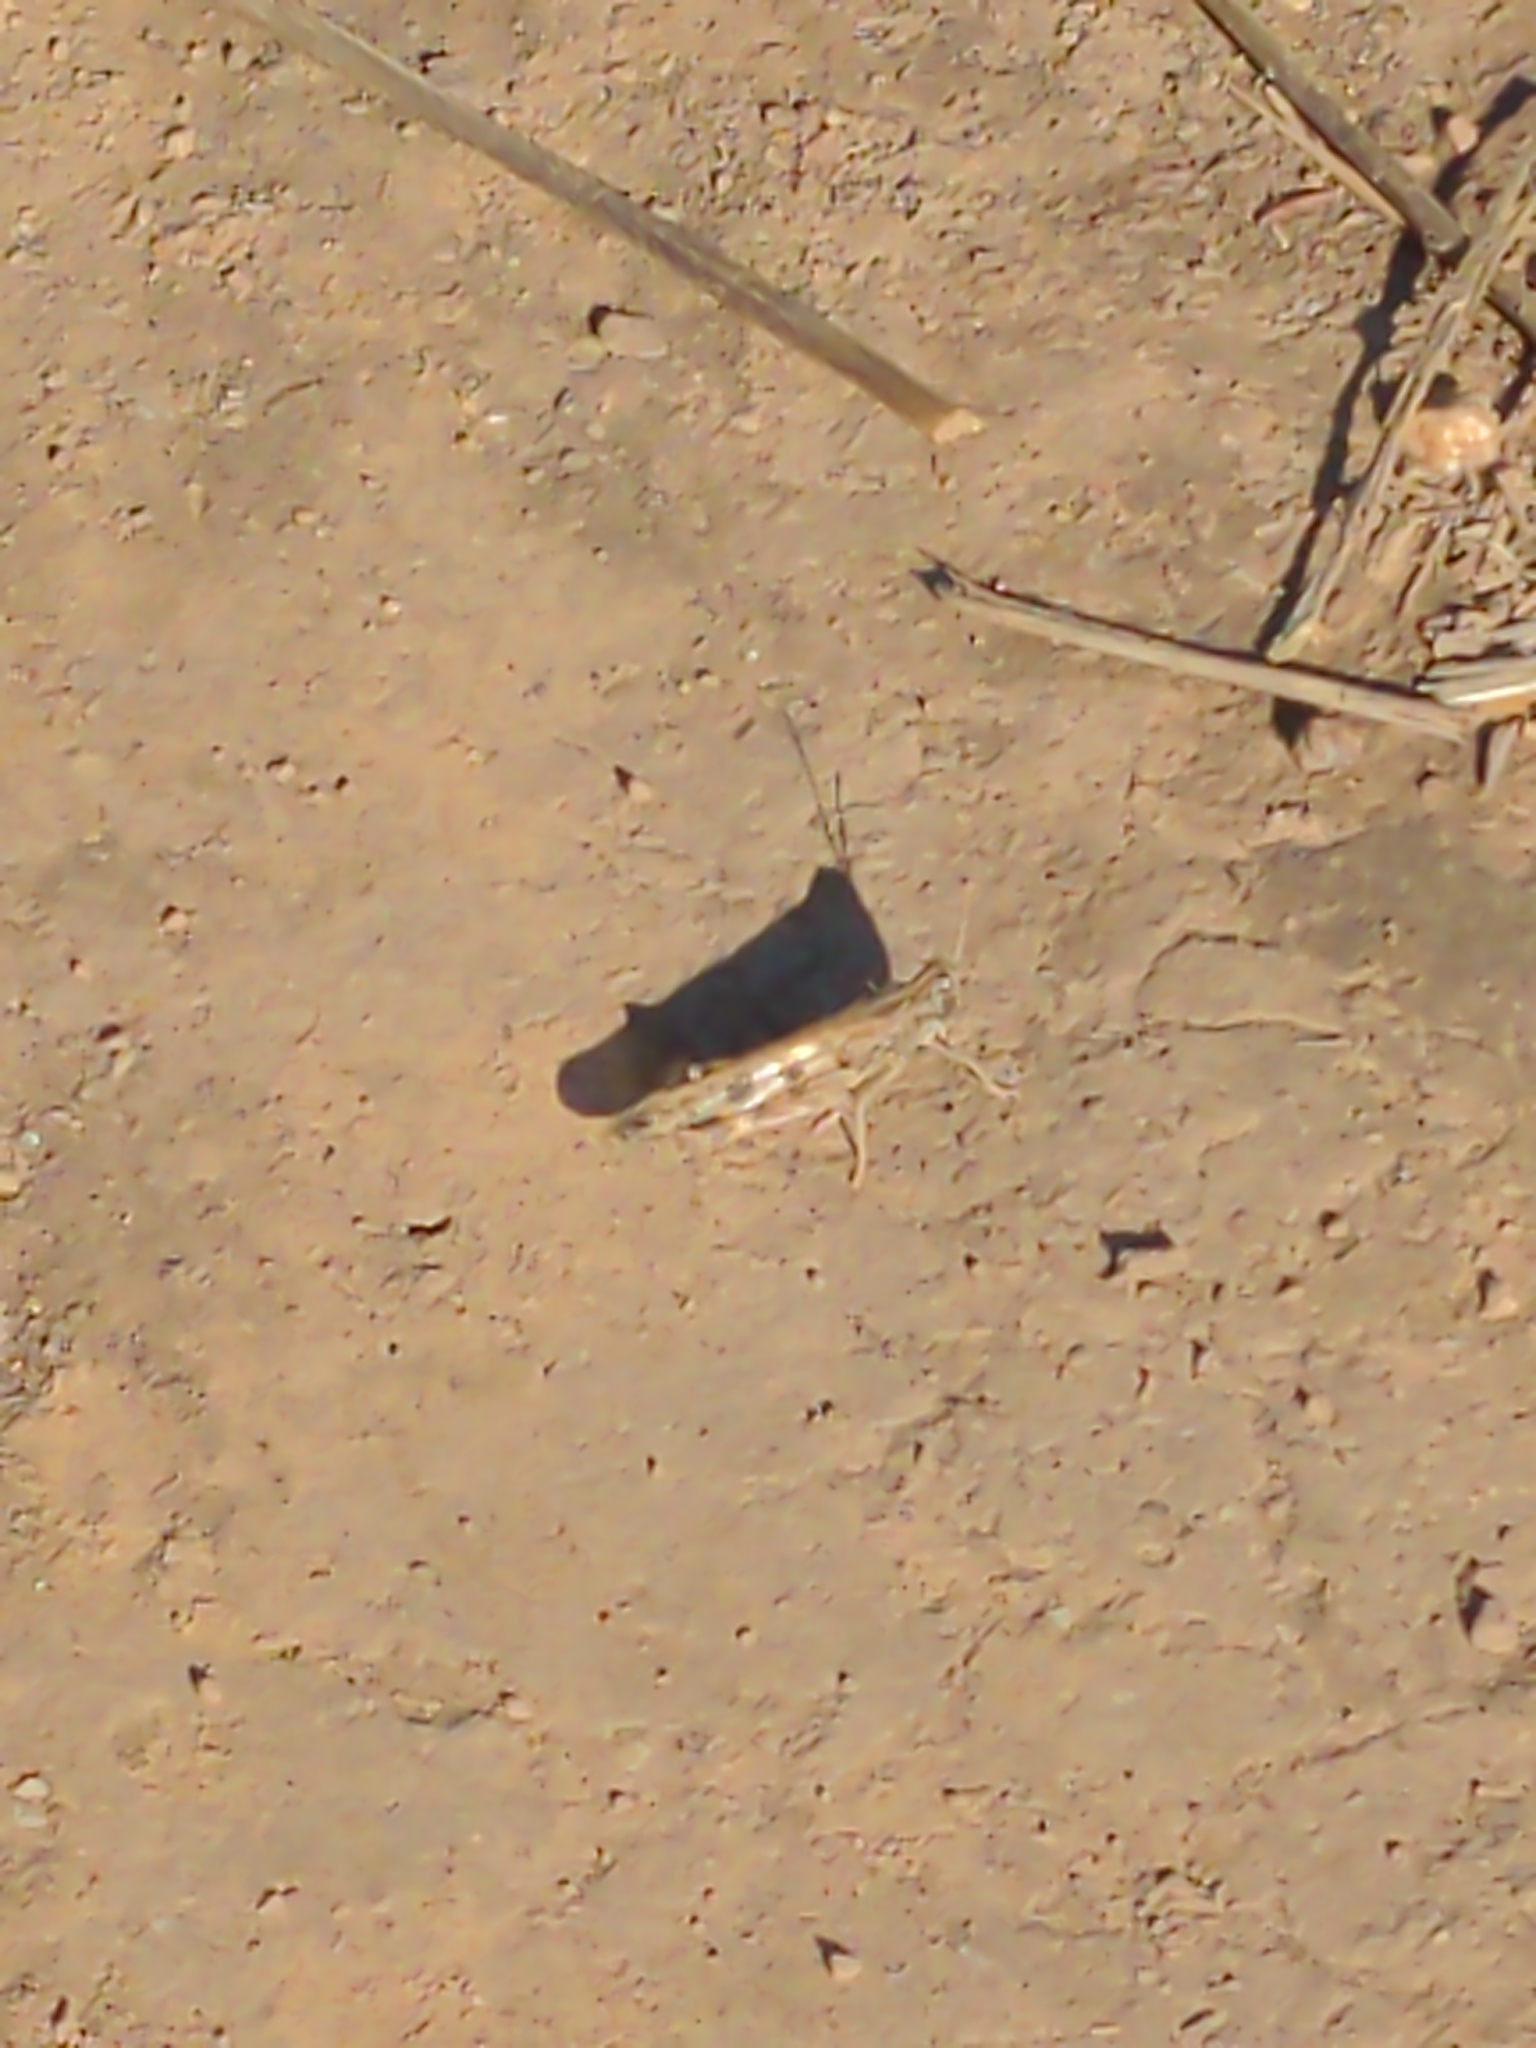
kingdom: Animalia
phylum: Arthropoda
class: Insecta
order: Orthoptera
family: Acrididae
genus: Chortoicetes
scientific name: Chortoicetes terminifera
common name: Australian plague locust
